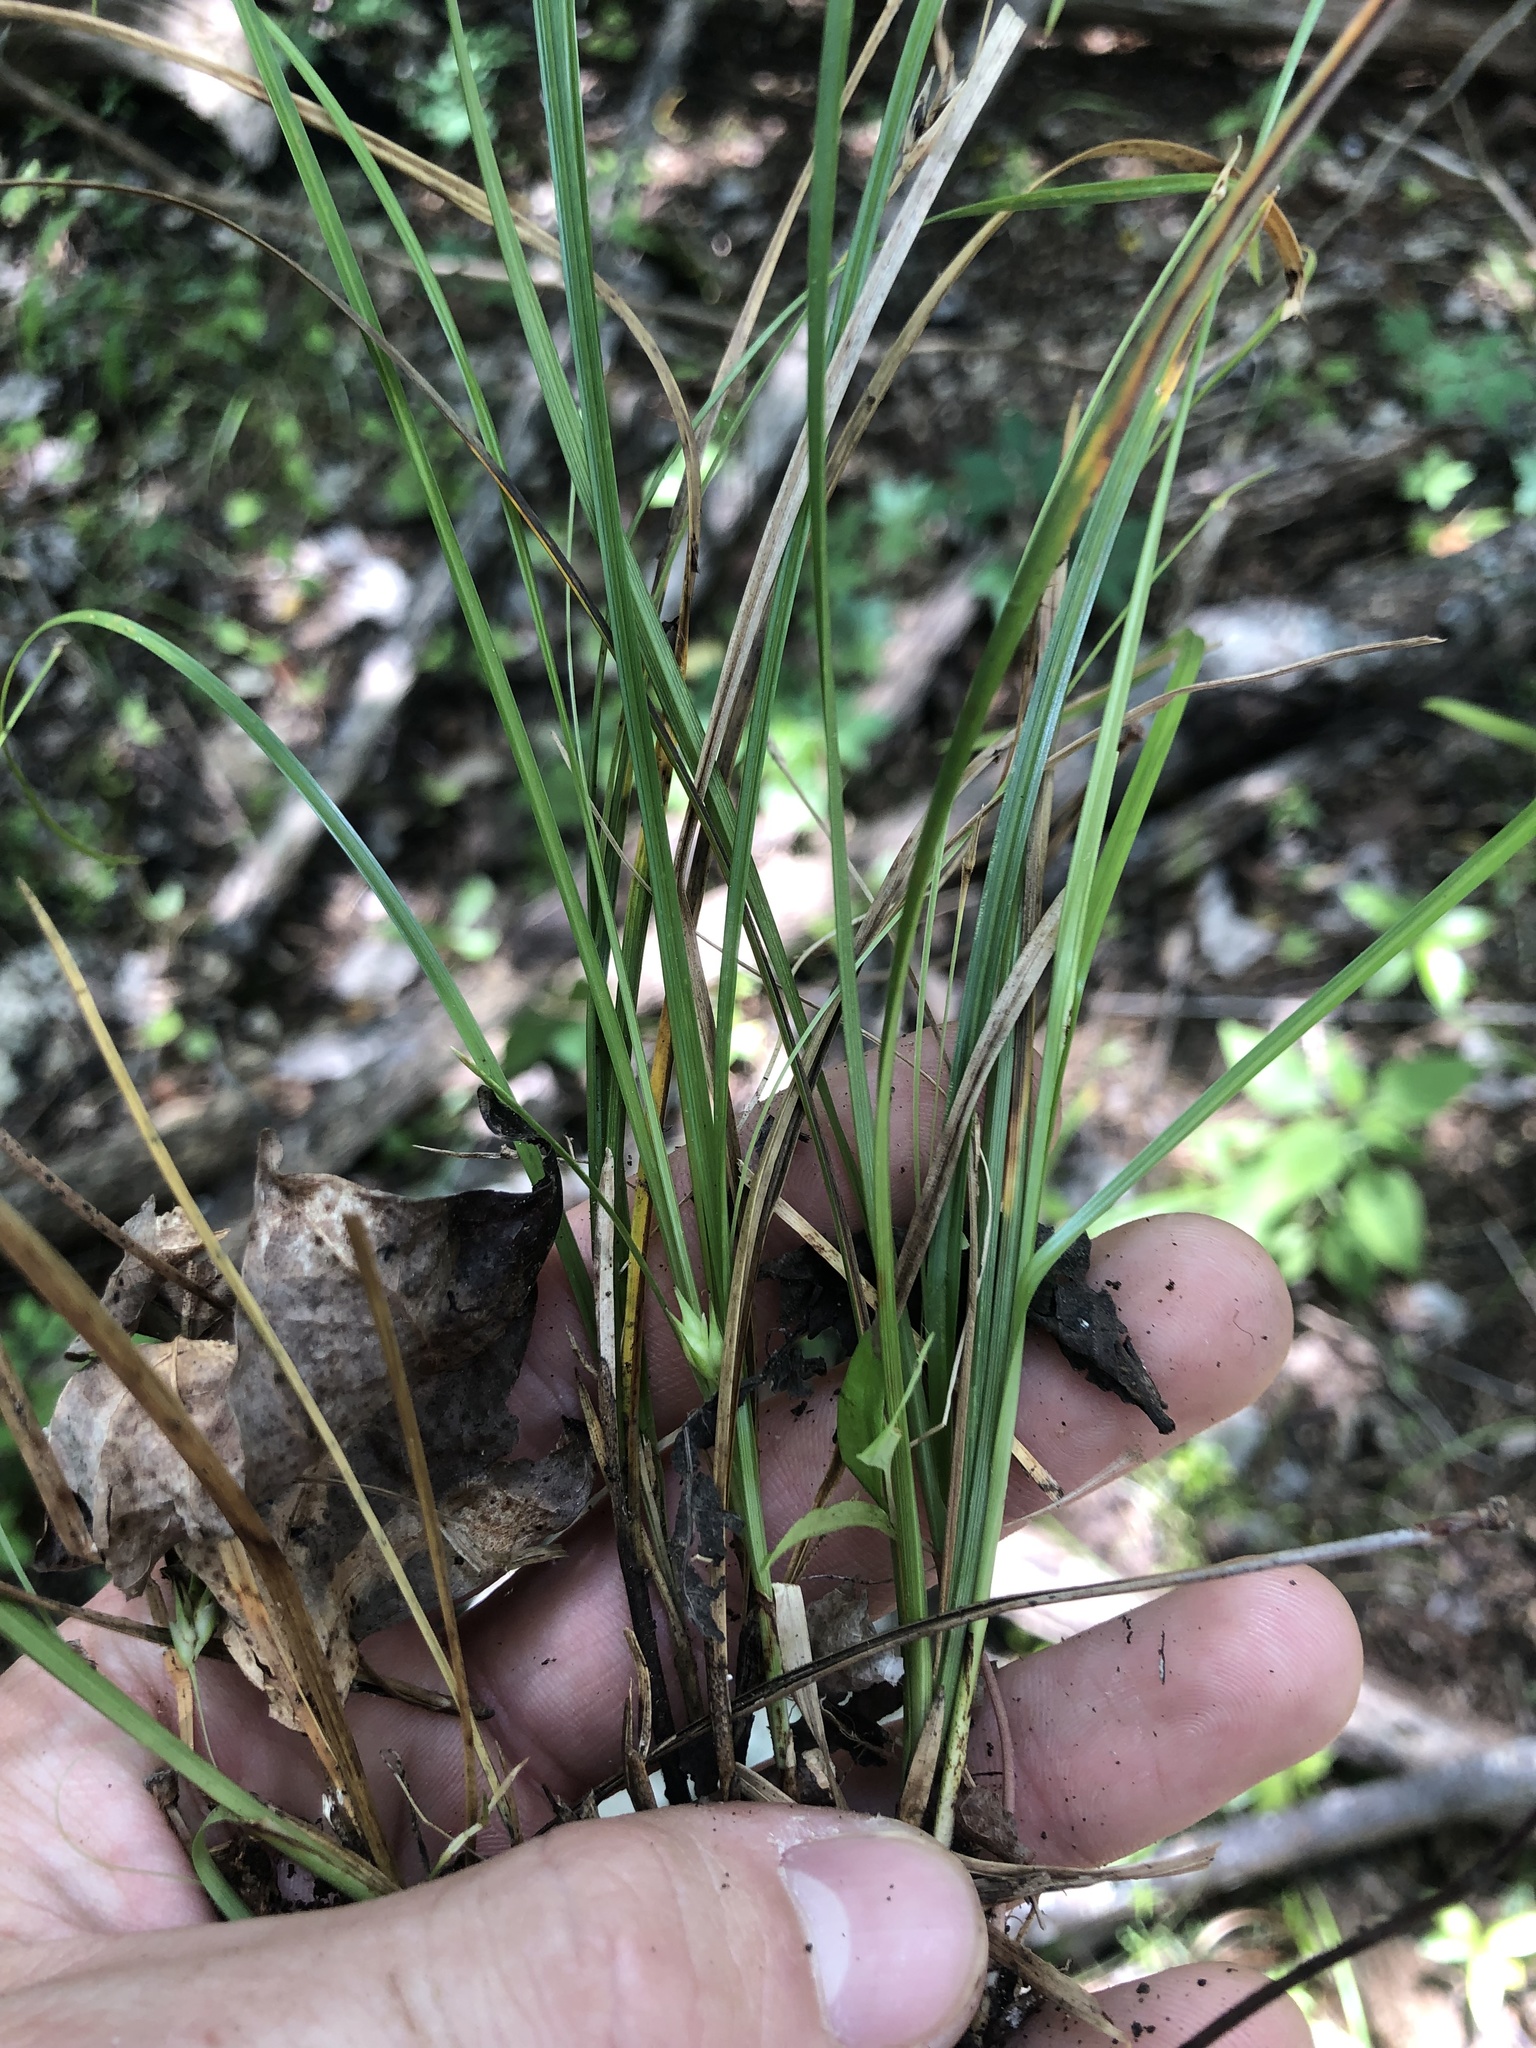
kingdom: Plantae
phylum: Tracheophyta
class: Liliopsida
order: Poales
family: Cyperaceae
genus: Carex
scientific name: Carex superata
